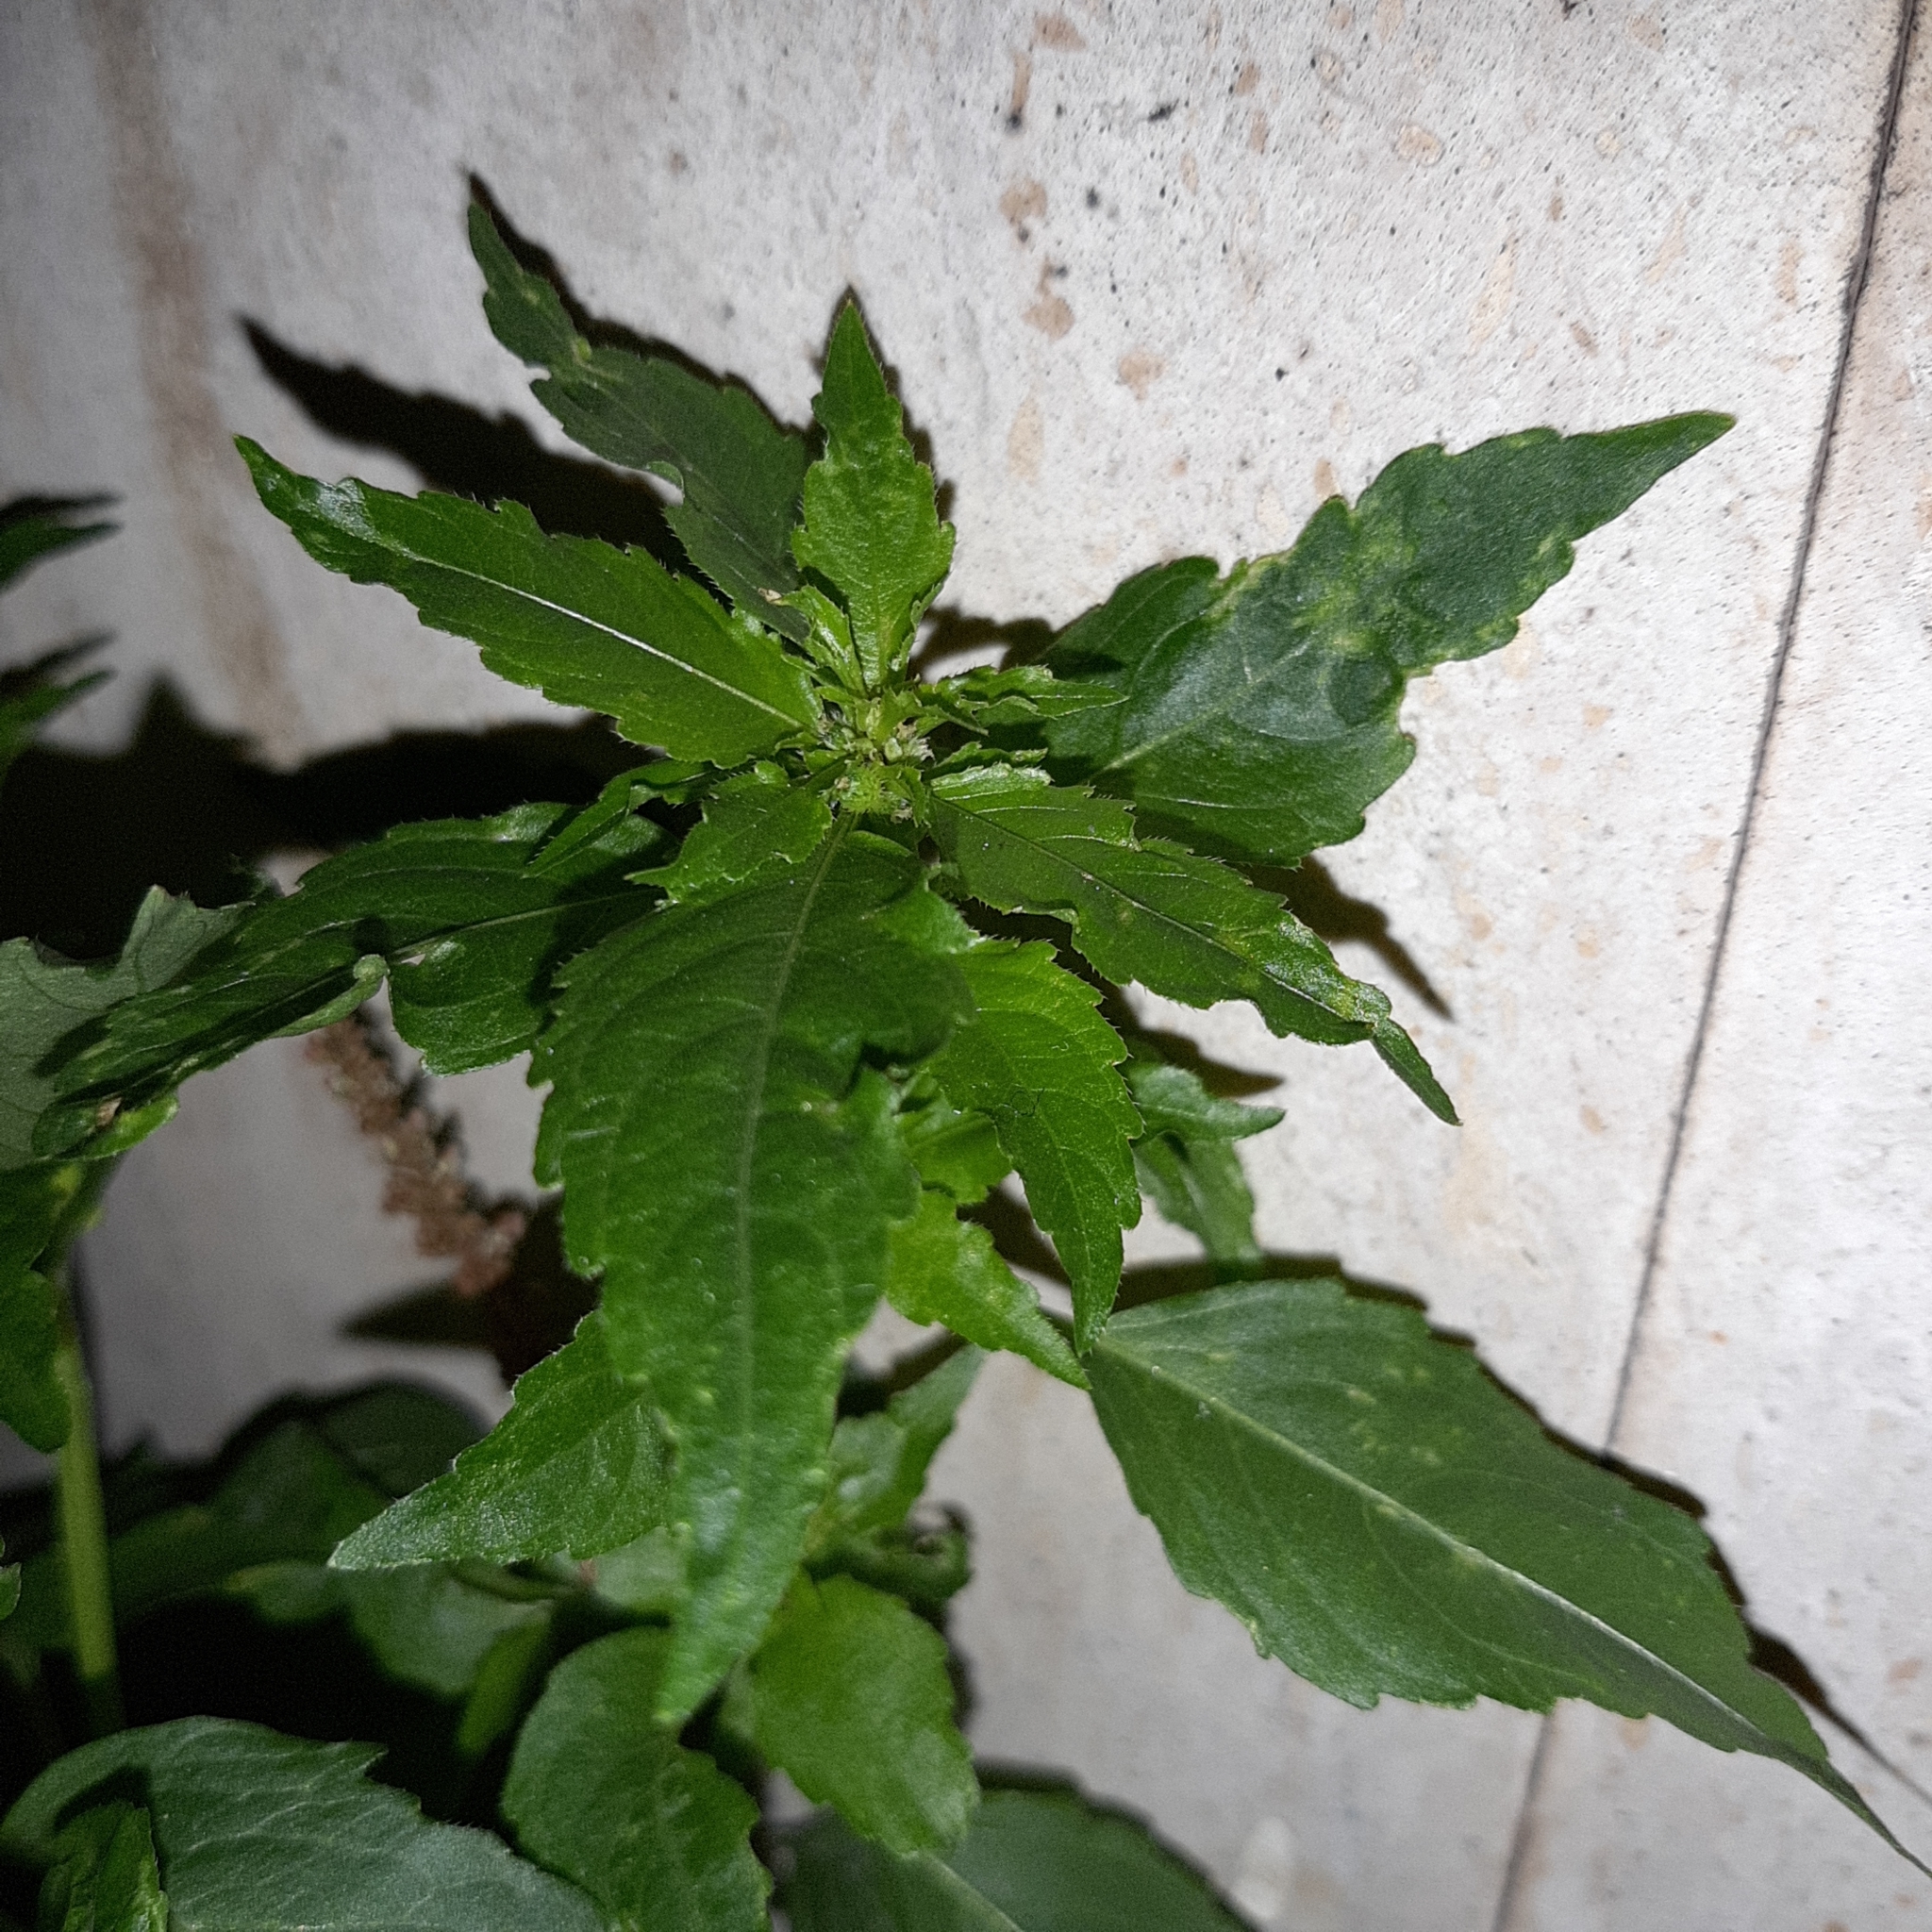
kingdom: Plantae
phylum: Tracheophyta
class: Magnoliopsida
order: Malpighiales
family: Euphorbiaceae
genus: Mercurialis
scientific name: Mercurialis annua
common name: Annual mercury
